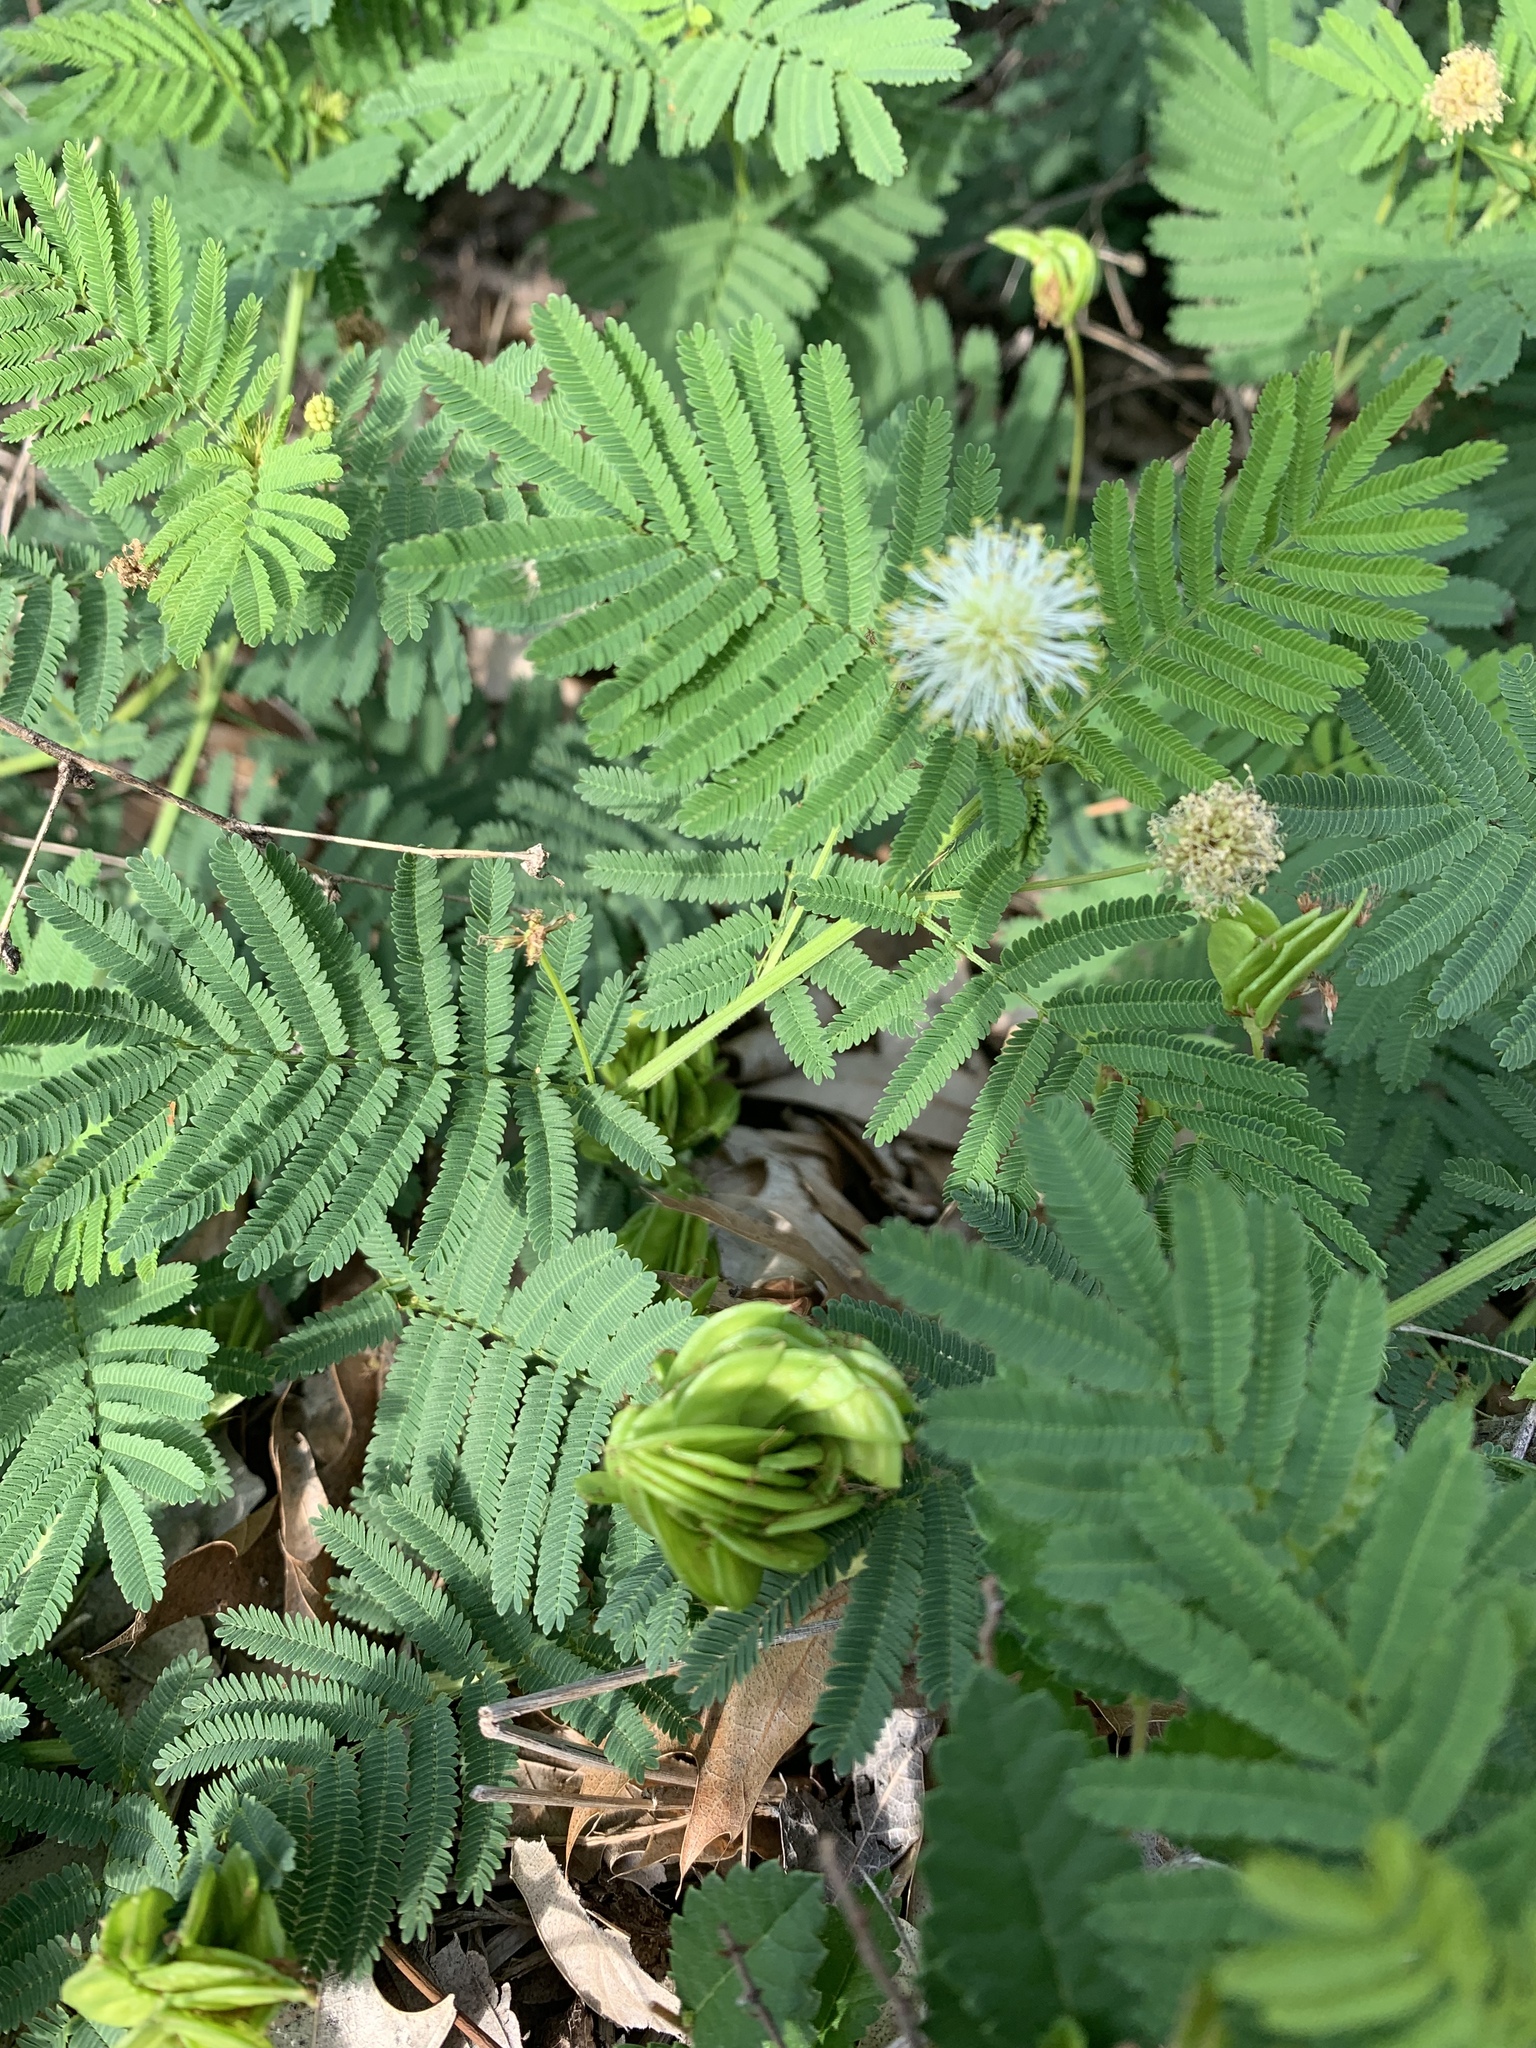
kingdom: Plantae
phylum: Tracheophyta
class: Magnoliopsida
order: Fabales
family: Fabaceae
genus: Desmanthus
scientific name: Desmanthus illinoensis
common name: Illinois bundle-flower
